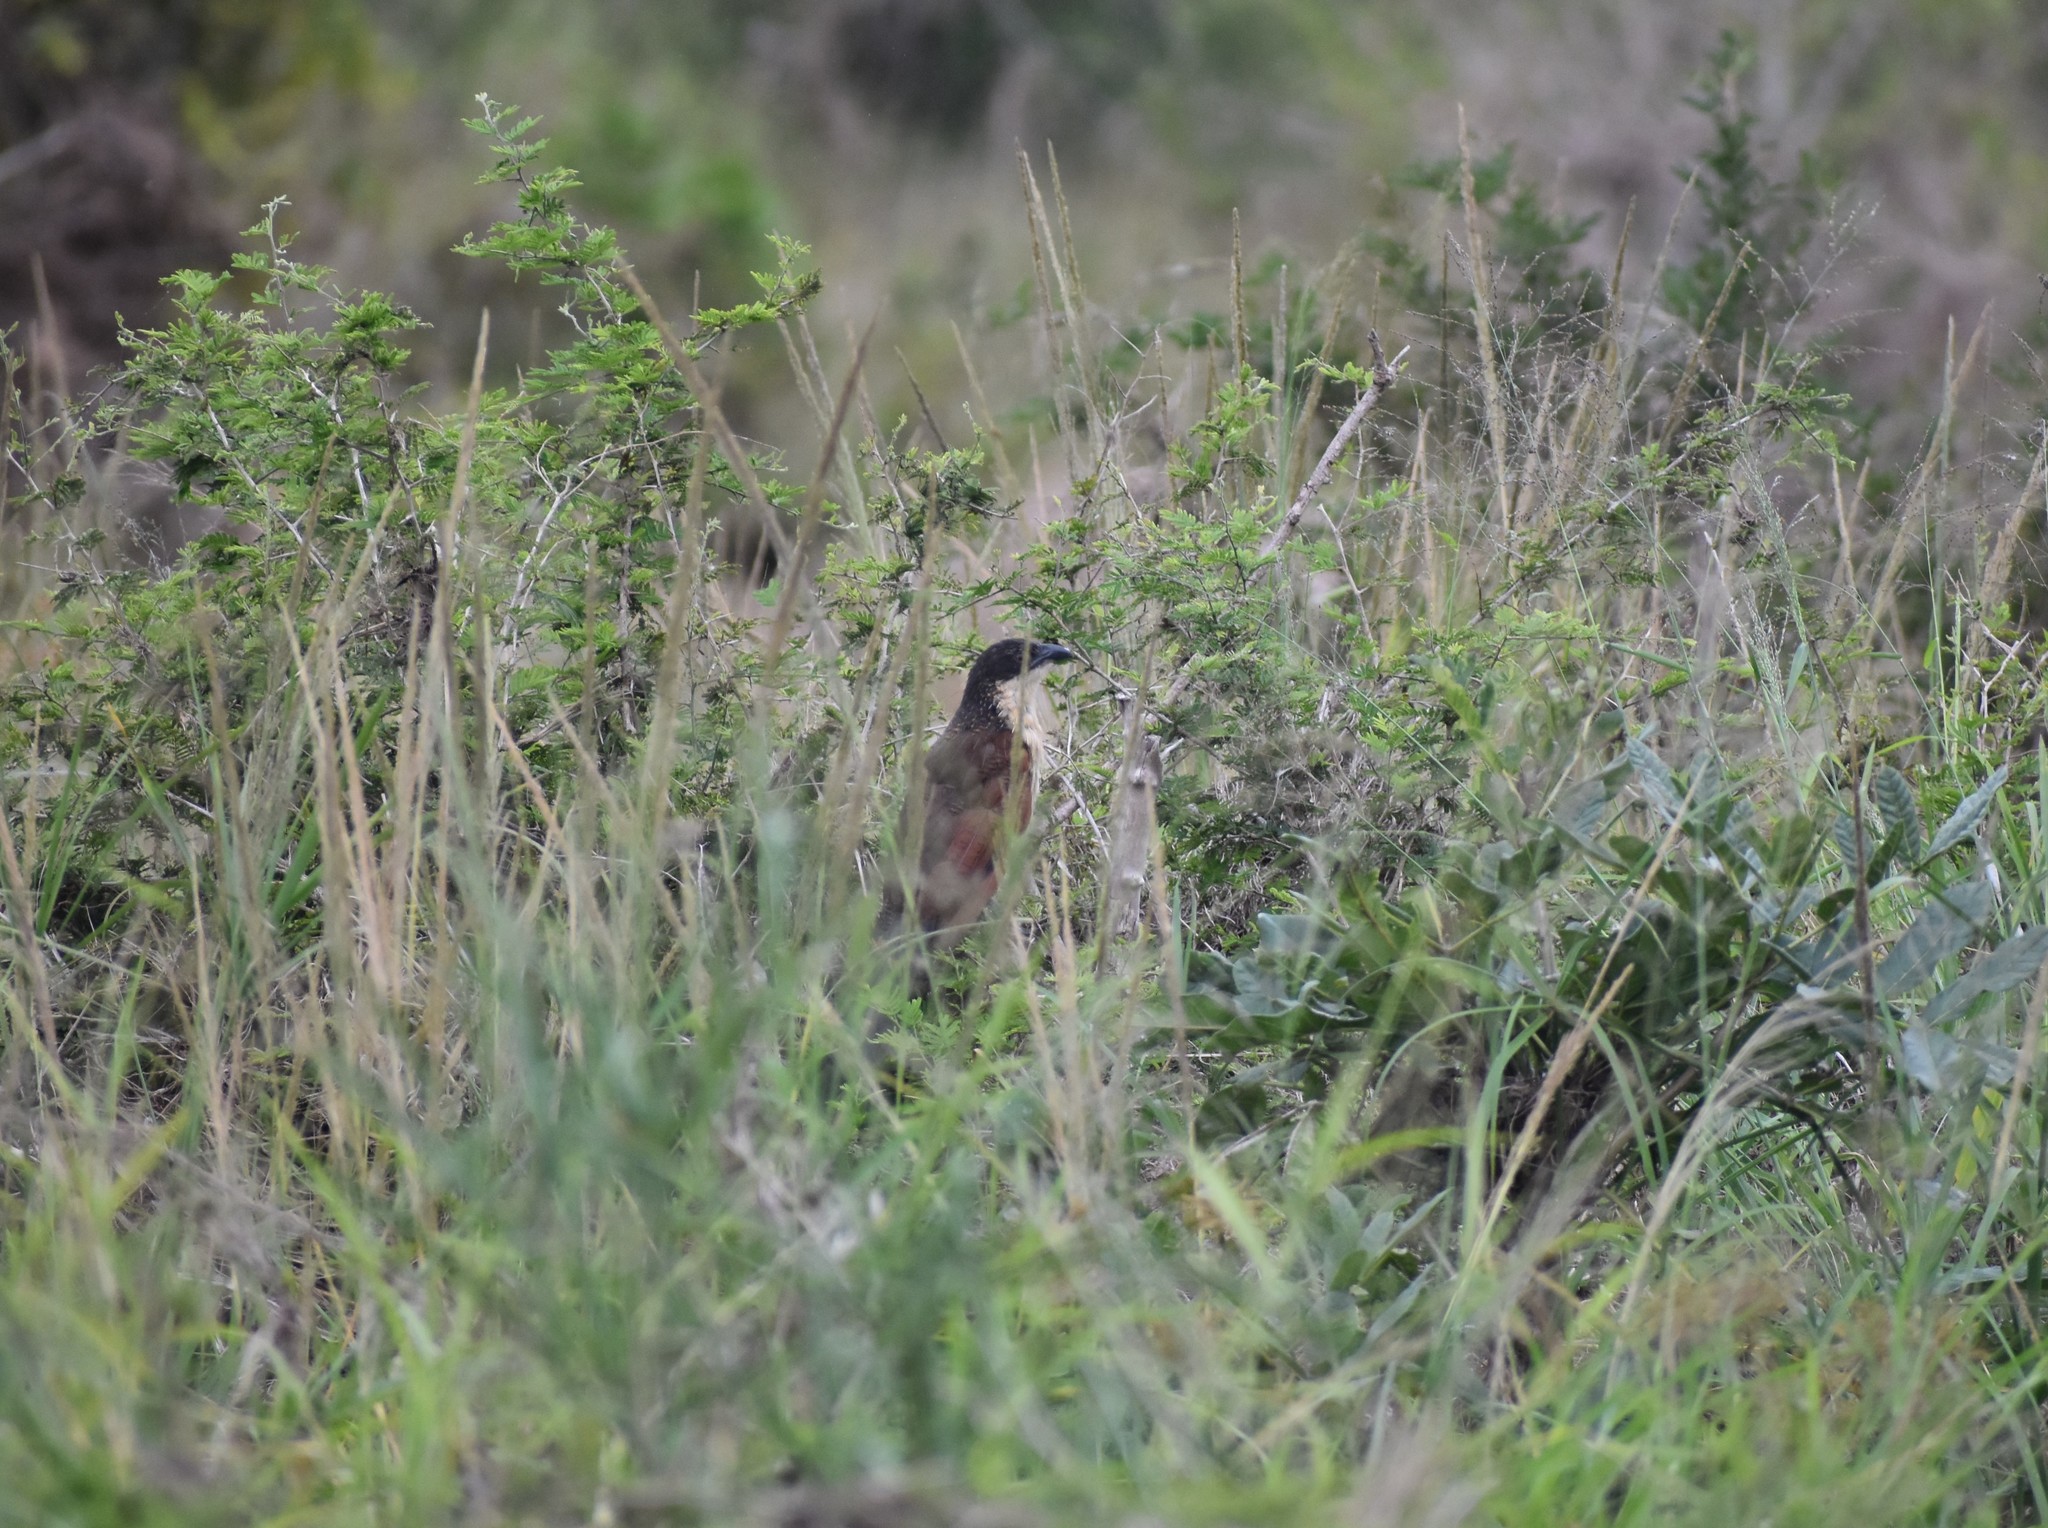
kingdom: Animalia
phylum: Chordata
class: Aves
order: Cuculiformes
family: Cuculidae
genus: Centropus
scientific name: Centropus superciliosus
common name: White-browed coucal
